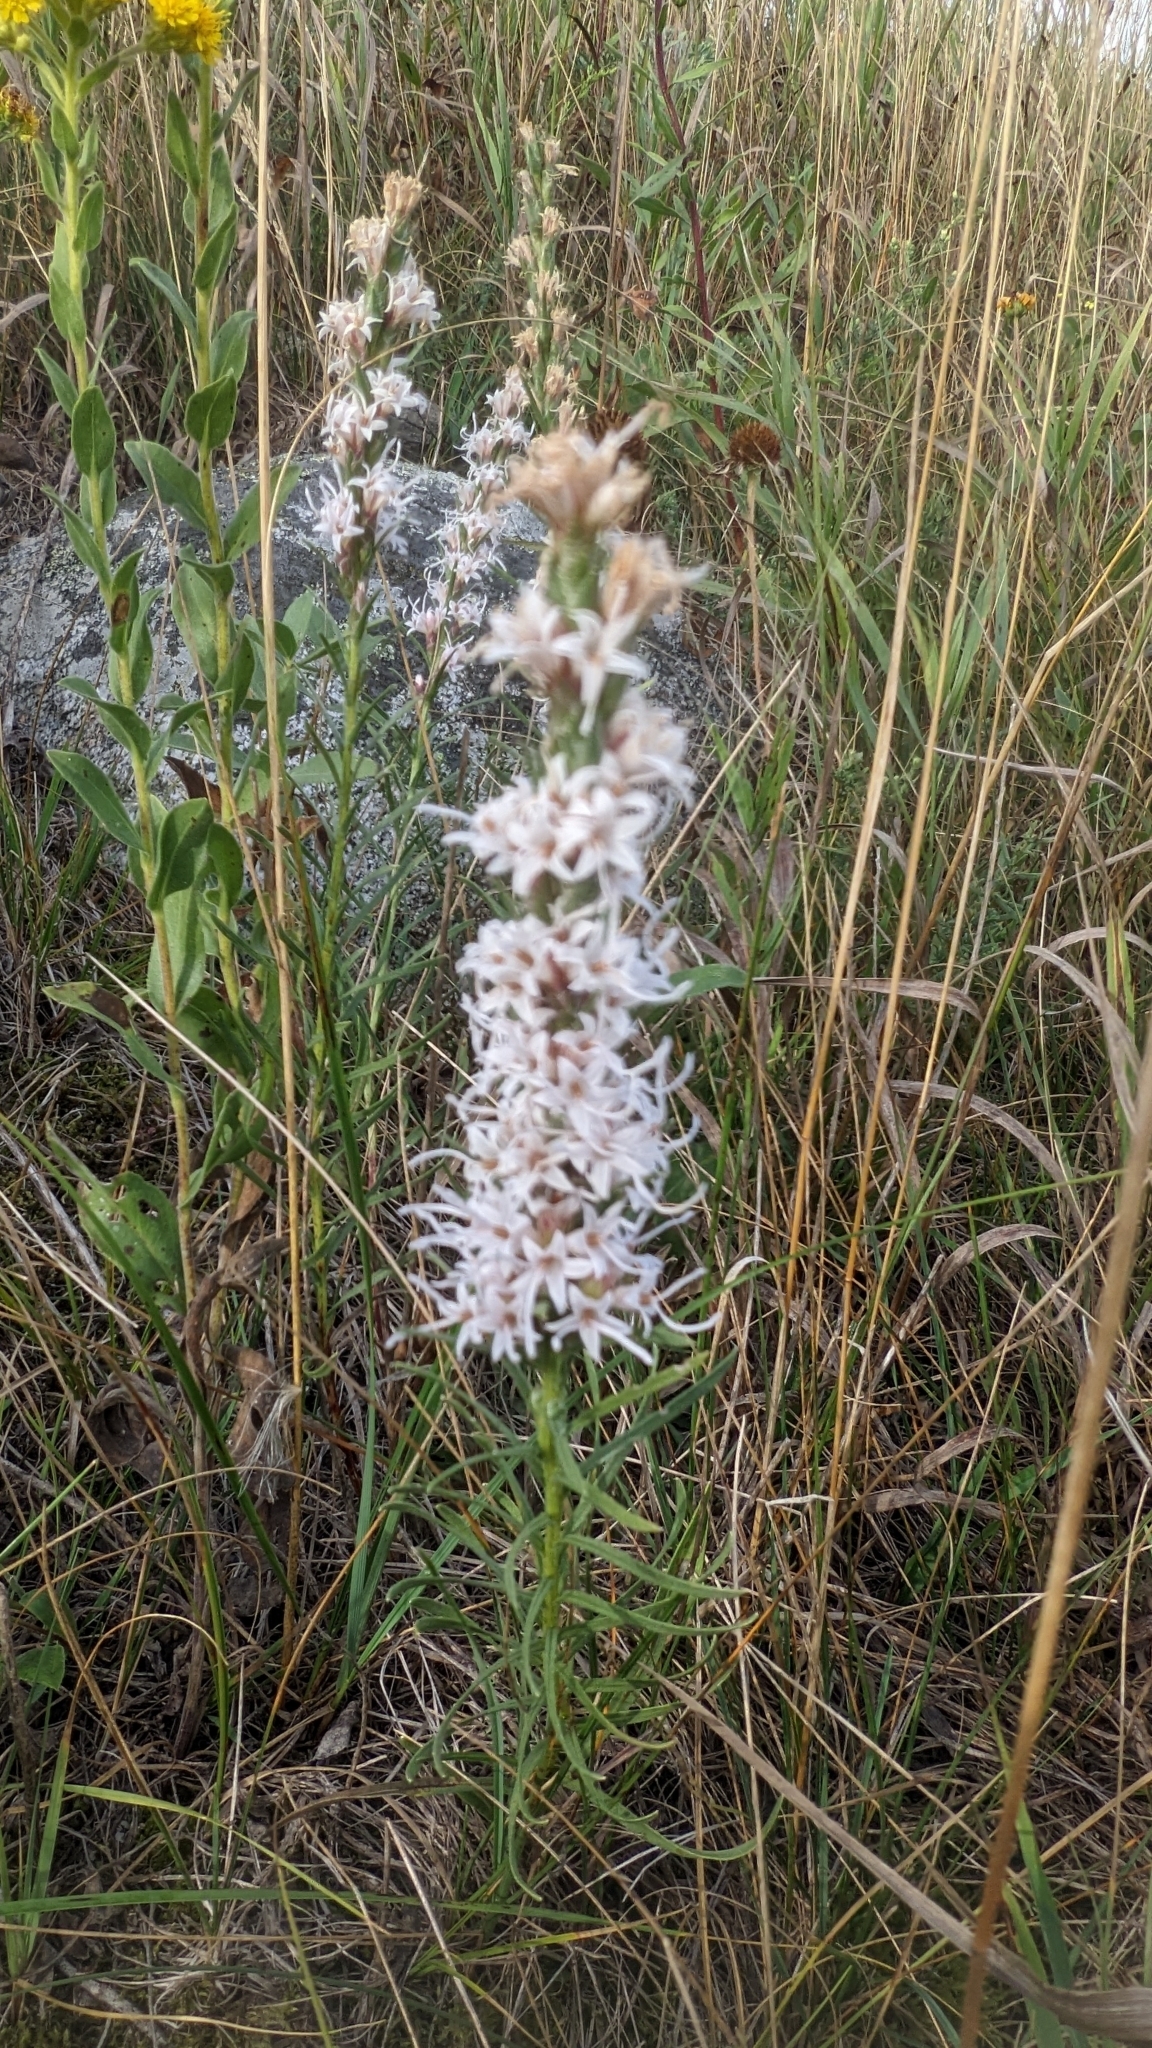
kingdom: Plantae
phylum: Tracheophyta
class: Magnoliopsida
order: Asterales
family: Asteraceae
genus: Liatris
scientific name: Liatris punctata
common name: Dotted gayfeather
